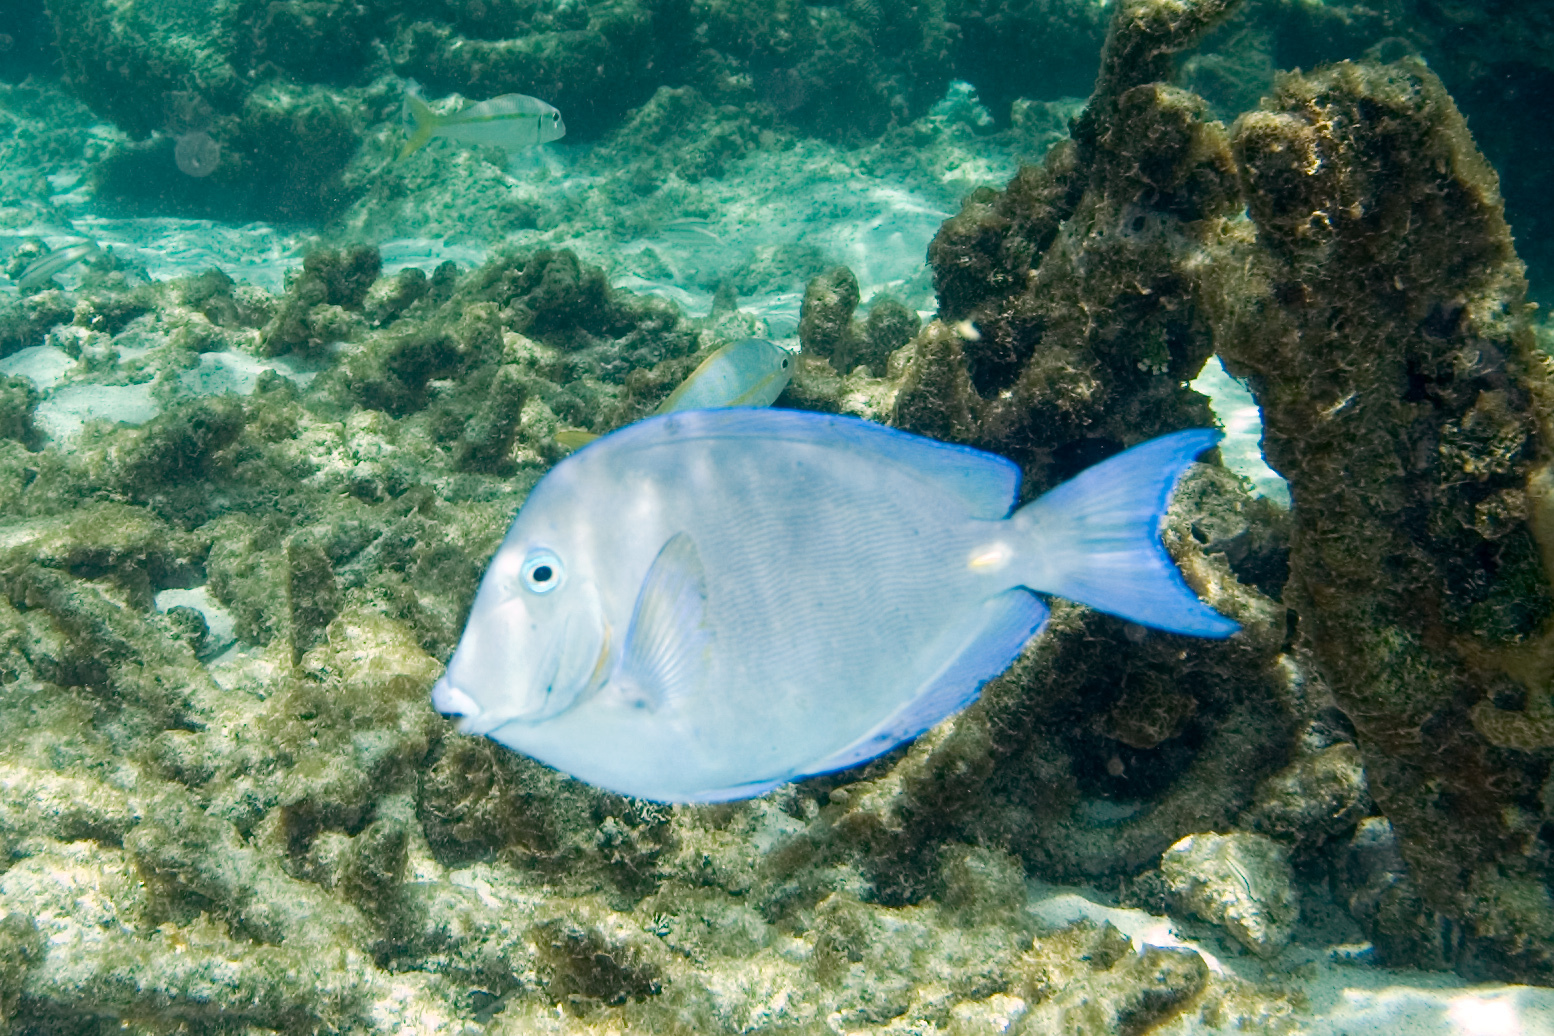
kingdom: Animalia
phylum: Chordata
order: Perciformes
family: Acanthuridae
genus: Acanthurus
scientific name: Acanthurus coeruleus
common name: Blue tang
